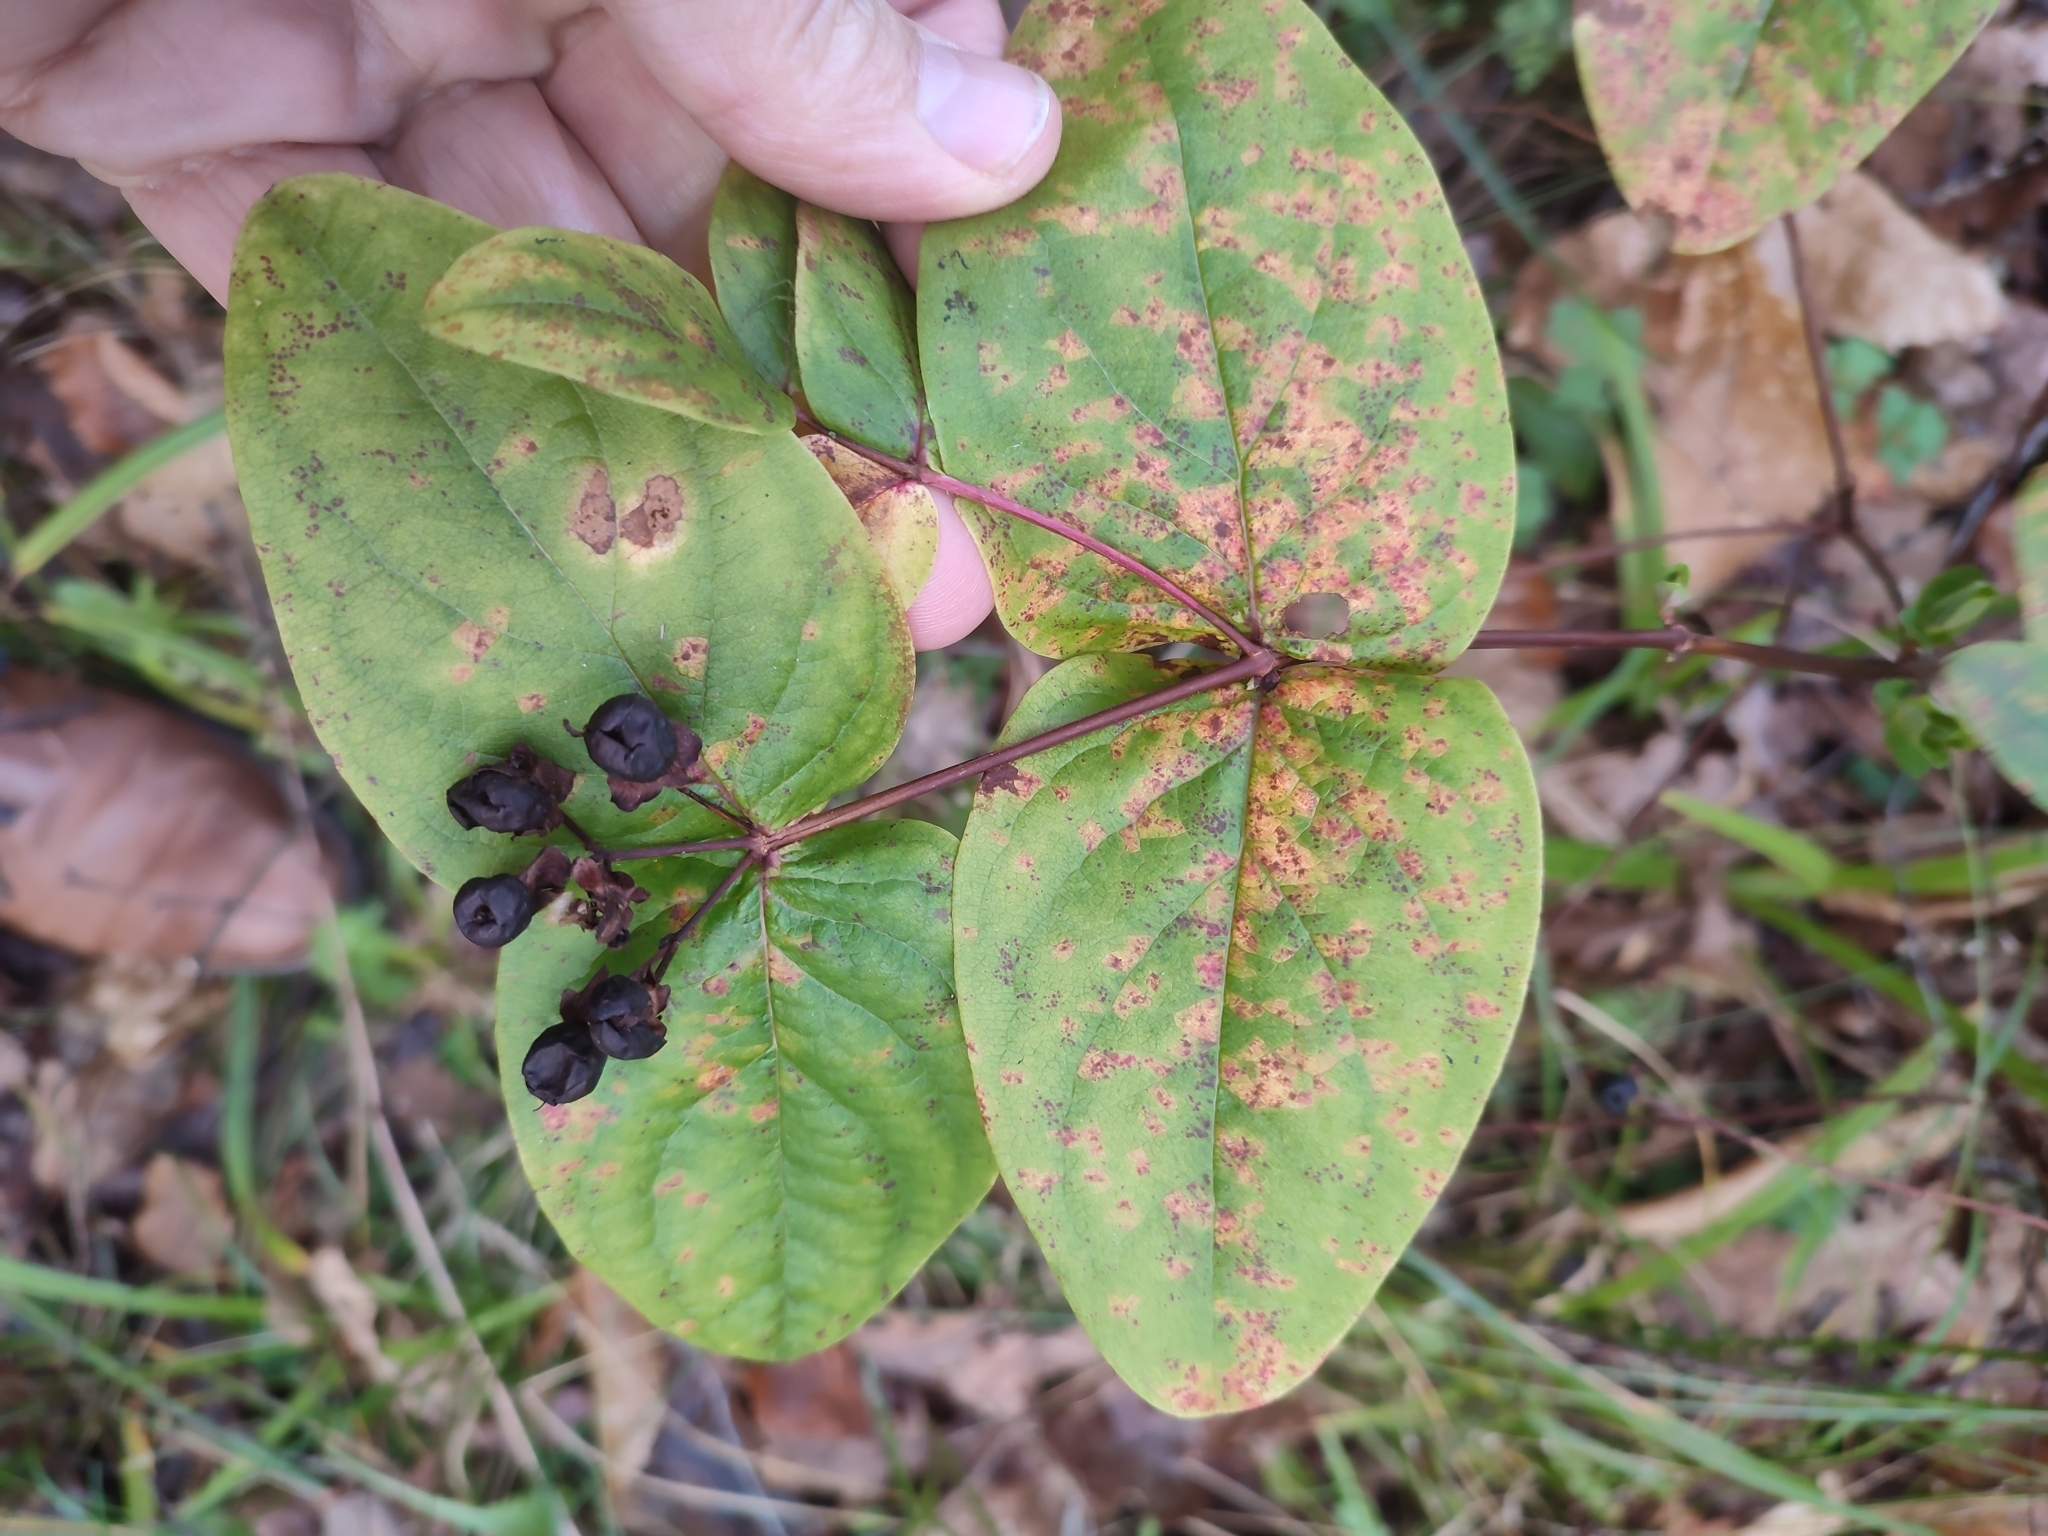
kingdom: Plantae
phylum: Tracheophyta
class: Magnoliopsida
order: Malpighiales
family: Hypericaceae
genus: Hypericum
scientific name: Hypericum androsaemum
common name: Sweet-amber
